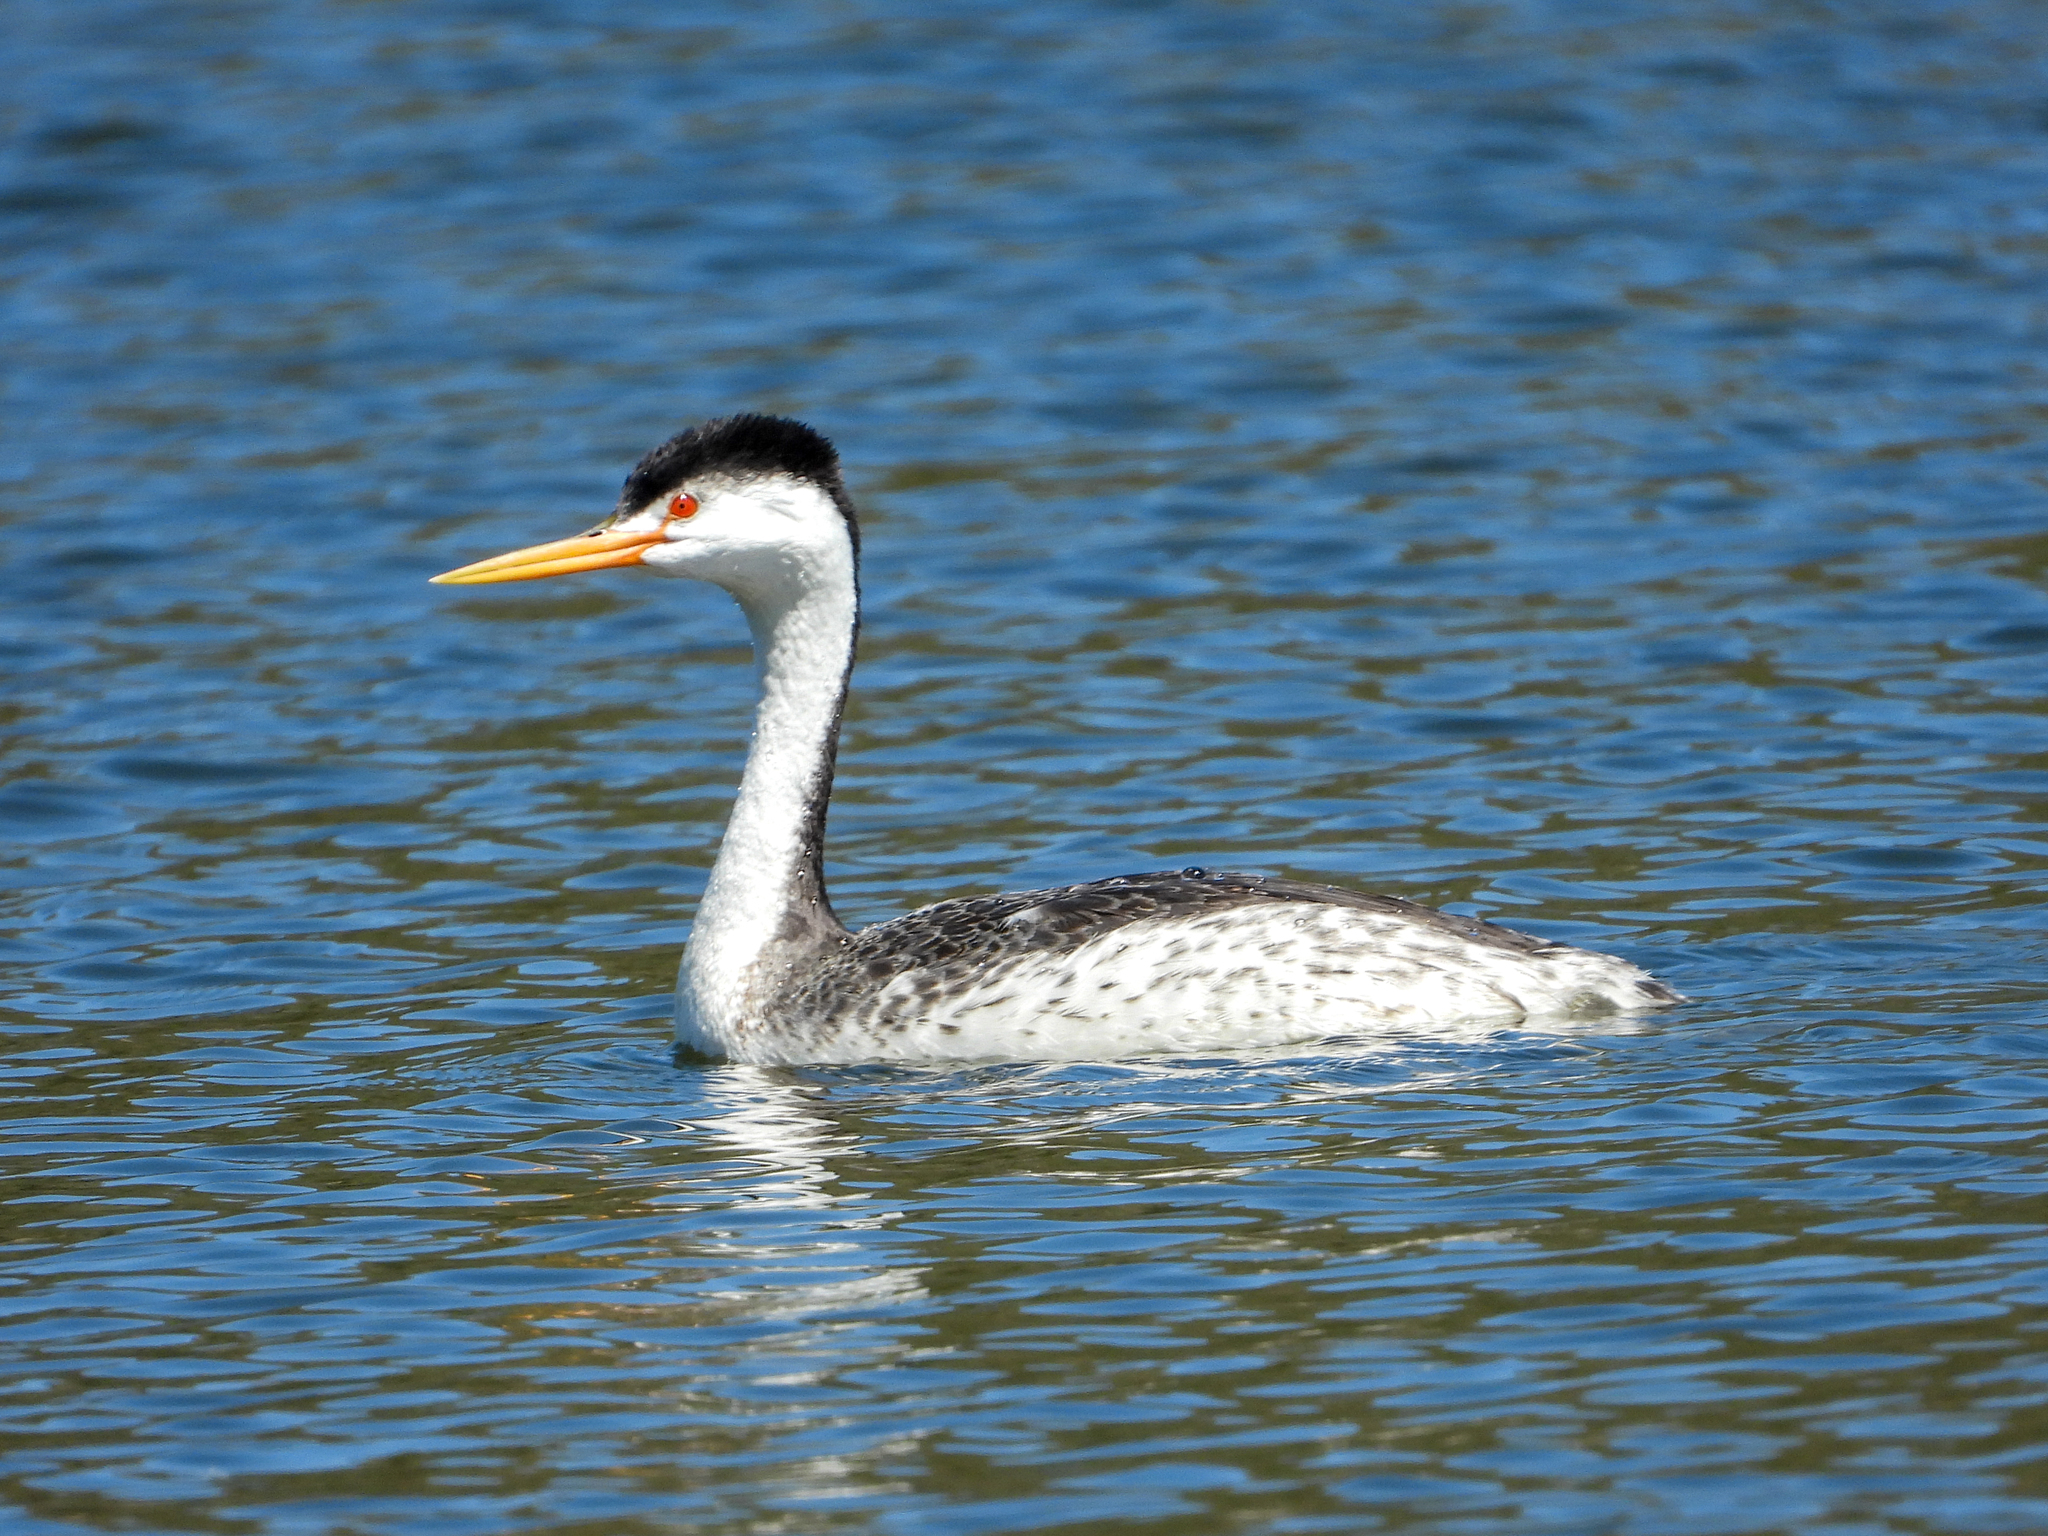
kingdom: Animalia
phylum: Chordata
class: Aves
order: Podicipediformes
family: Podicipedidae
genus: Aechmophorus
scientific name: Aechmophorus clarkii
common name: Clark's grebe
